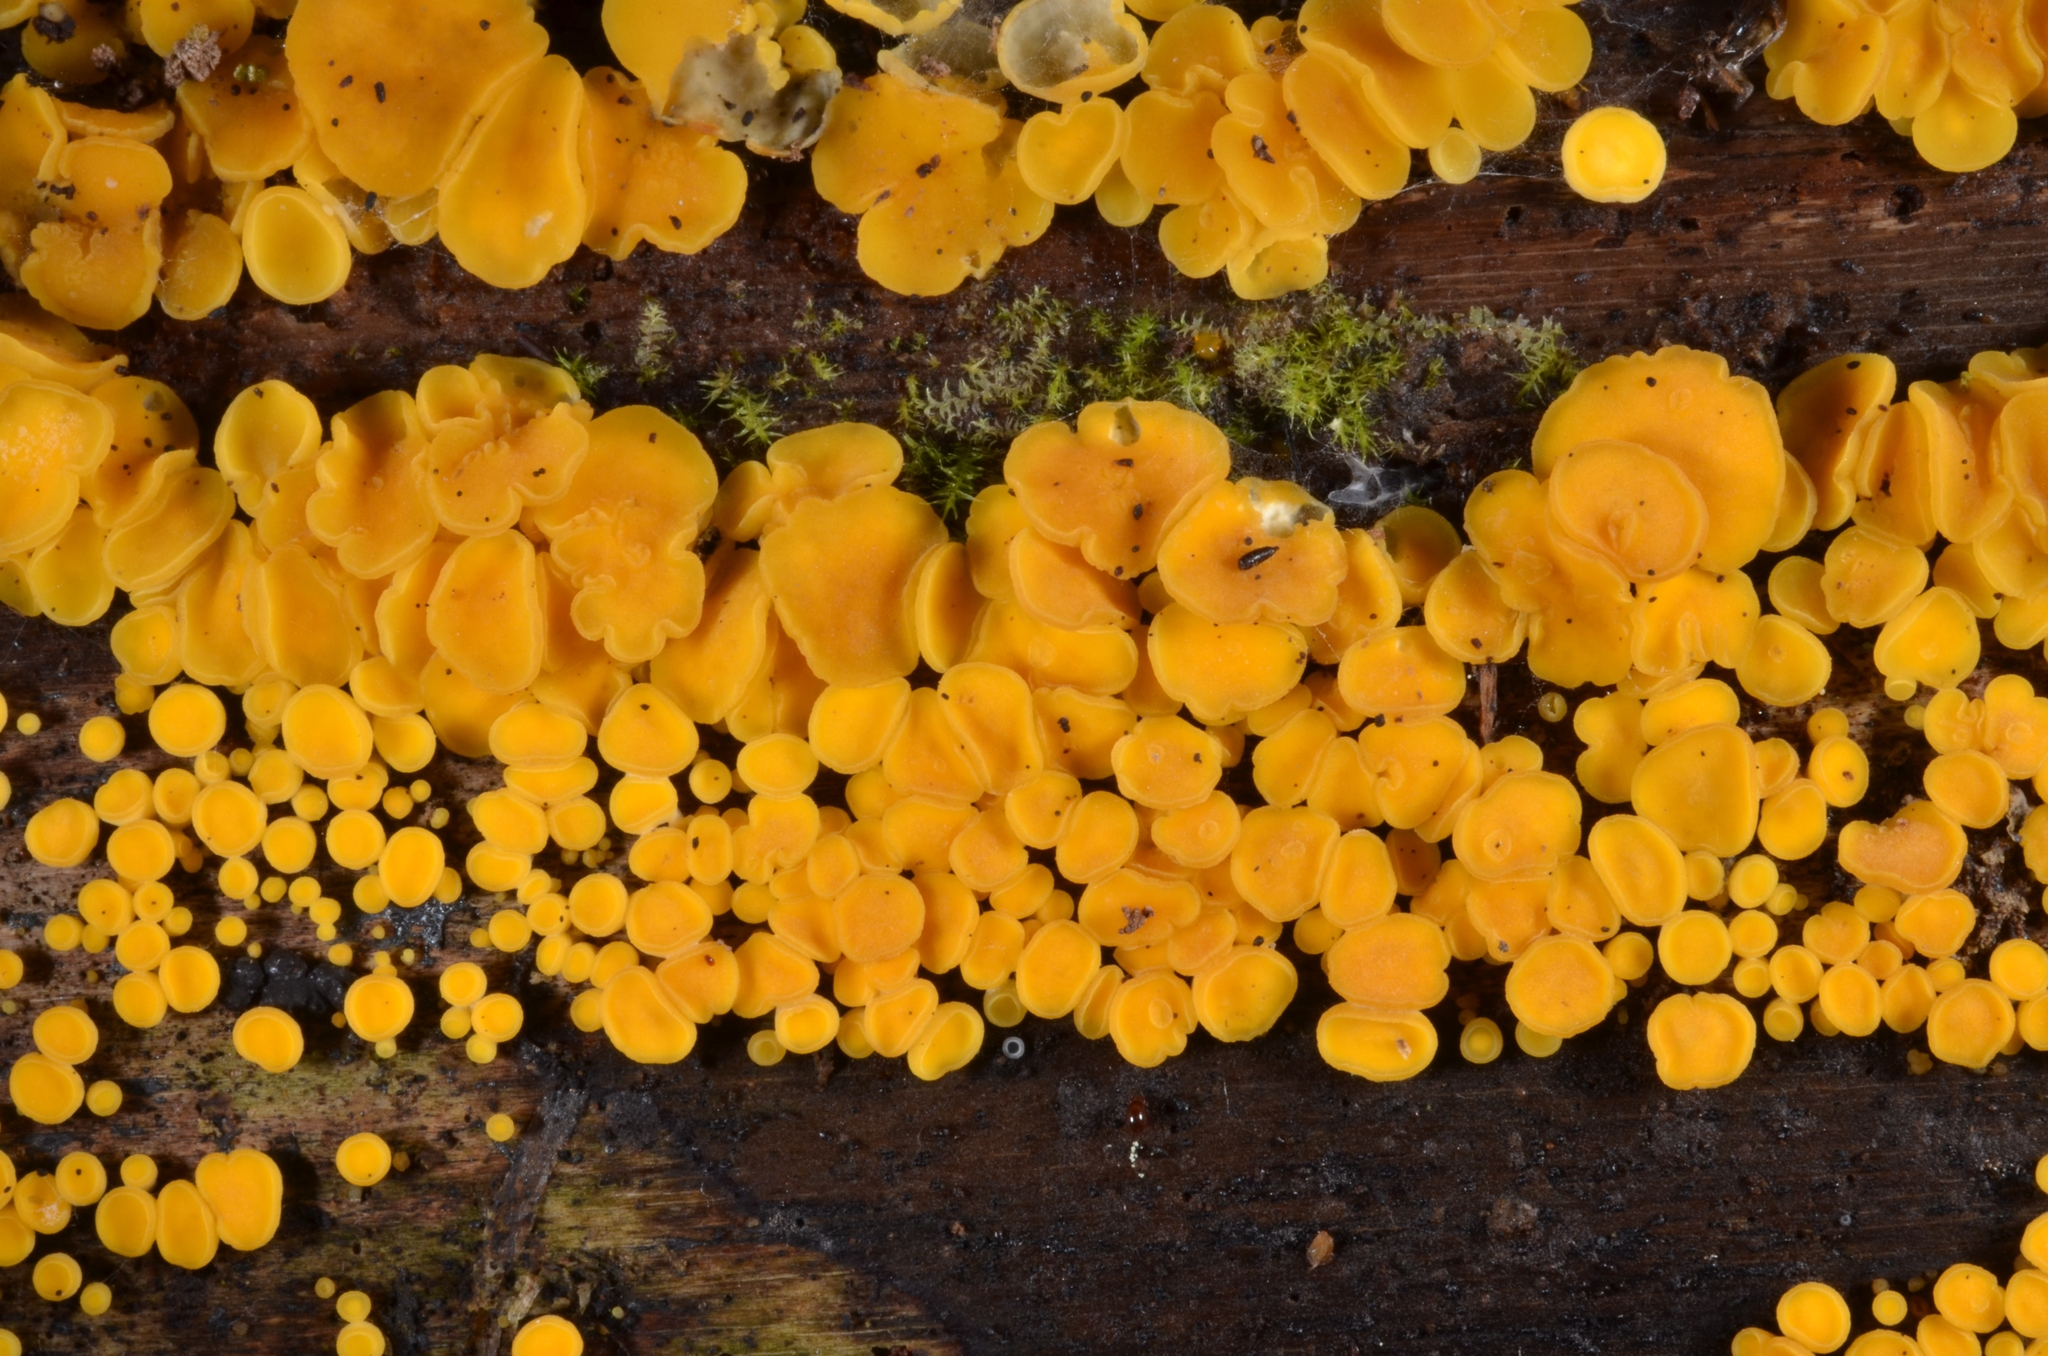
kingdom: Fungi
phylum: Ascomycota
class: Leotiomycetes
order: Helotiales
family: Pezizellaceae
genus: Calycina
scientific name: Calycina citrina
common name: Yellow fairy cups
